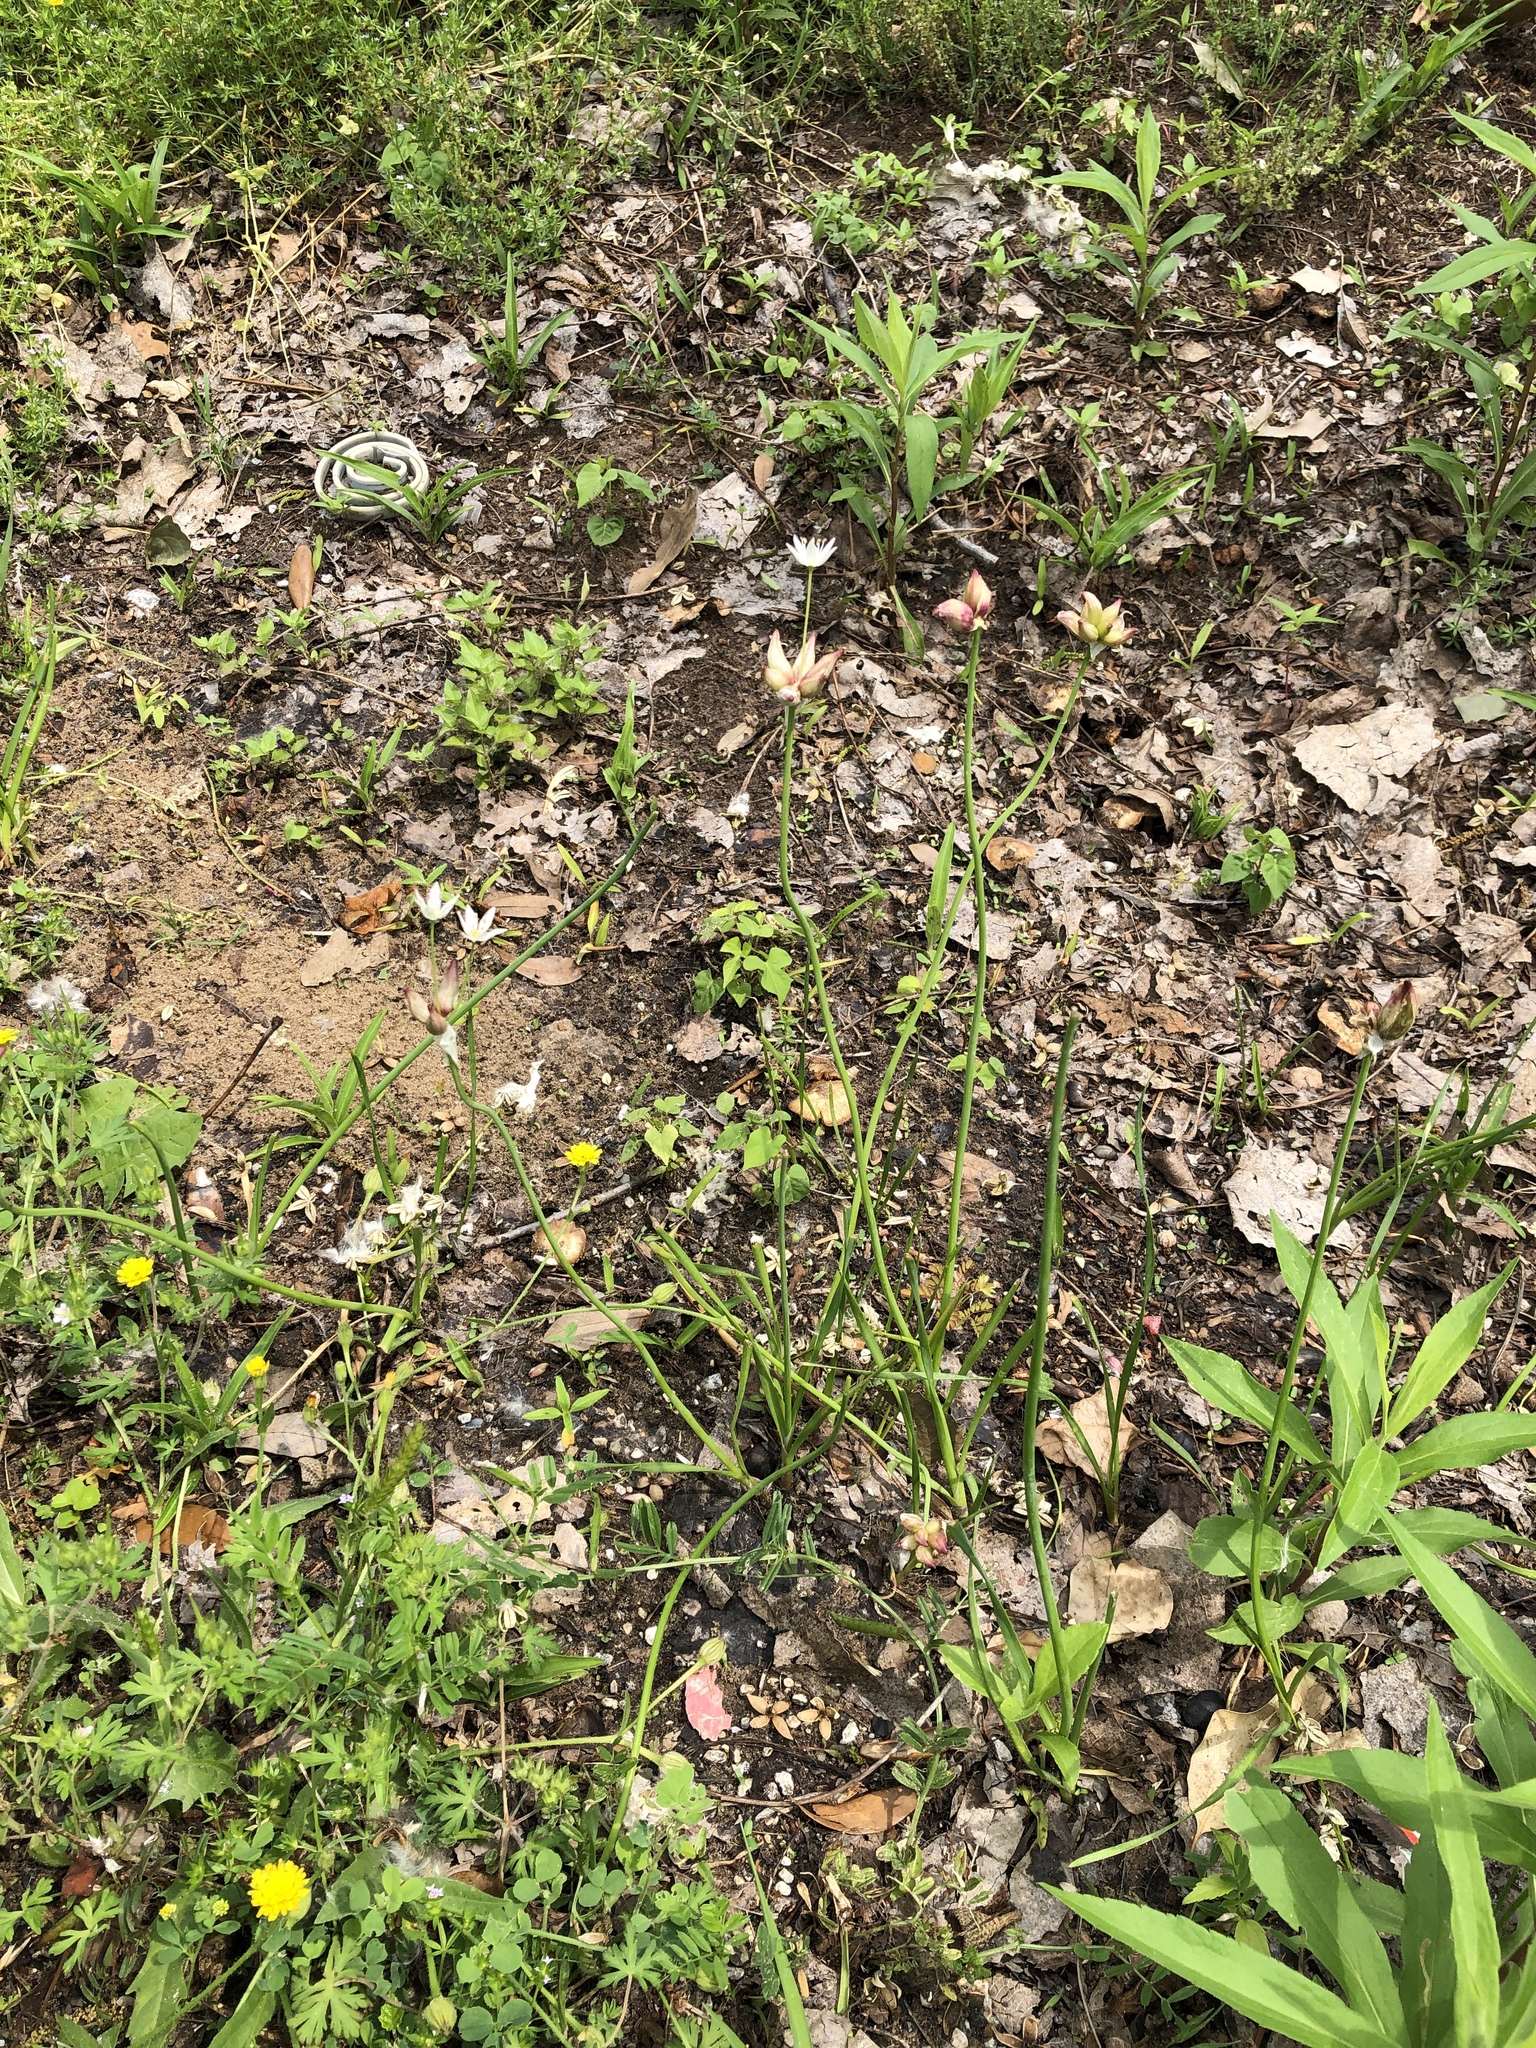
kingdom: Plantae
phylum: Tracheophyta
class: Liliopsida
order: Asparagales
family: Amaryllidaceae
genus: Allium
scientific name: Allium canadense
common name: Meadow garlic
